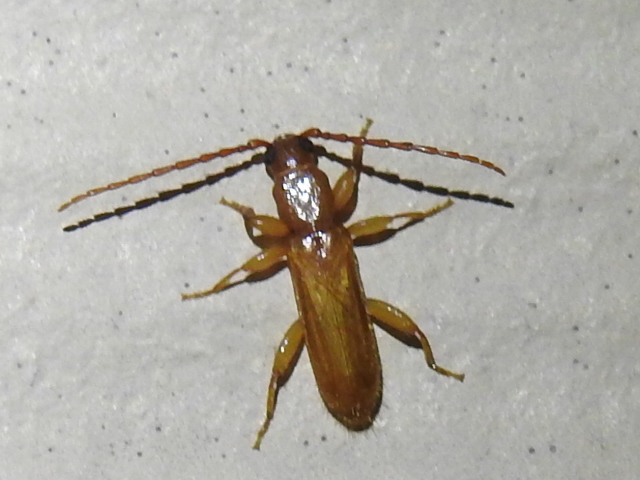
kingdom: Animalia
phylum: Arthropoda
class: Insecta
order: Coleoptera
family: Cerambycidae
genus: Smodicum
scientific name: Smodicum cucujiforme
